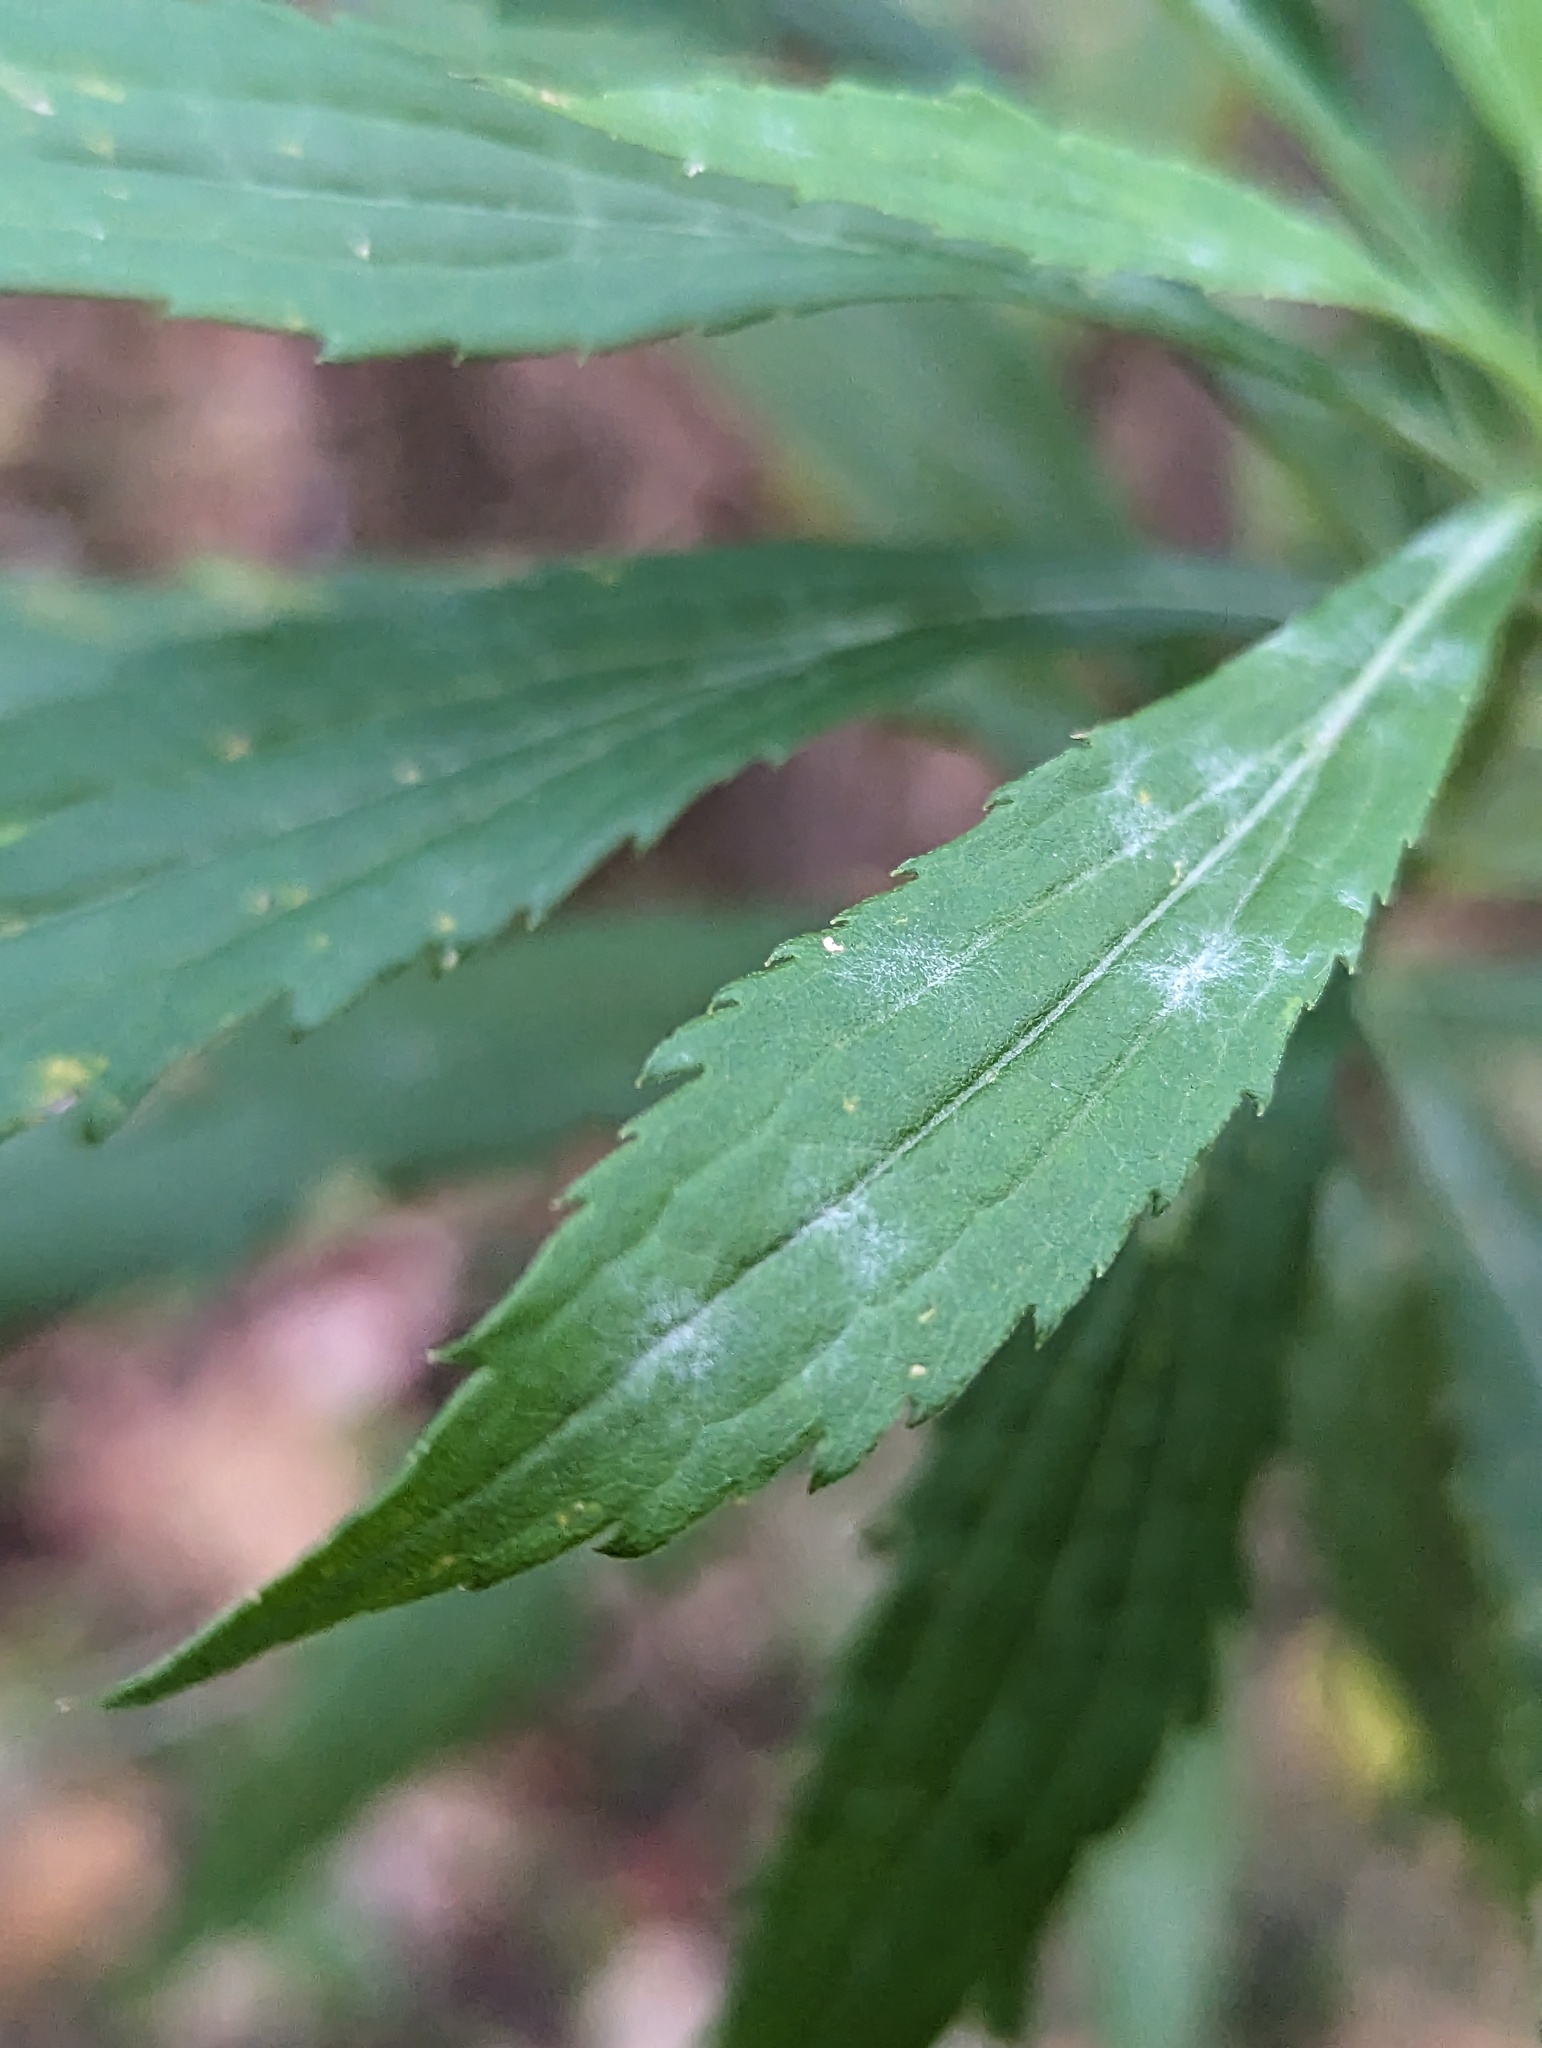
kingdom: Fungi
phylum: Ascomycota
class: Leotiomycetes
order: Helotiales
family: Erysiphaceae
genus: Golovinomyces
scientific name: Golovinomyces asterum
